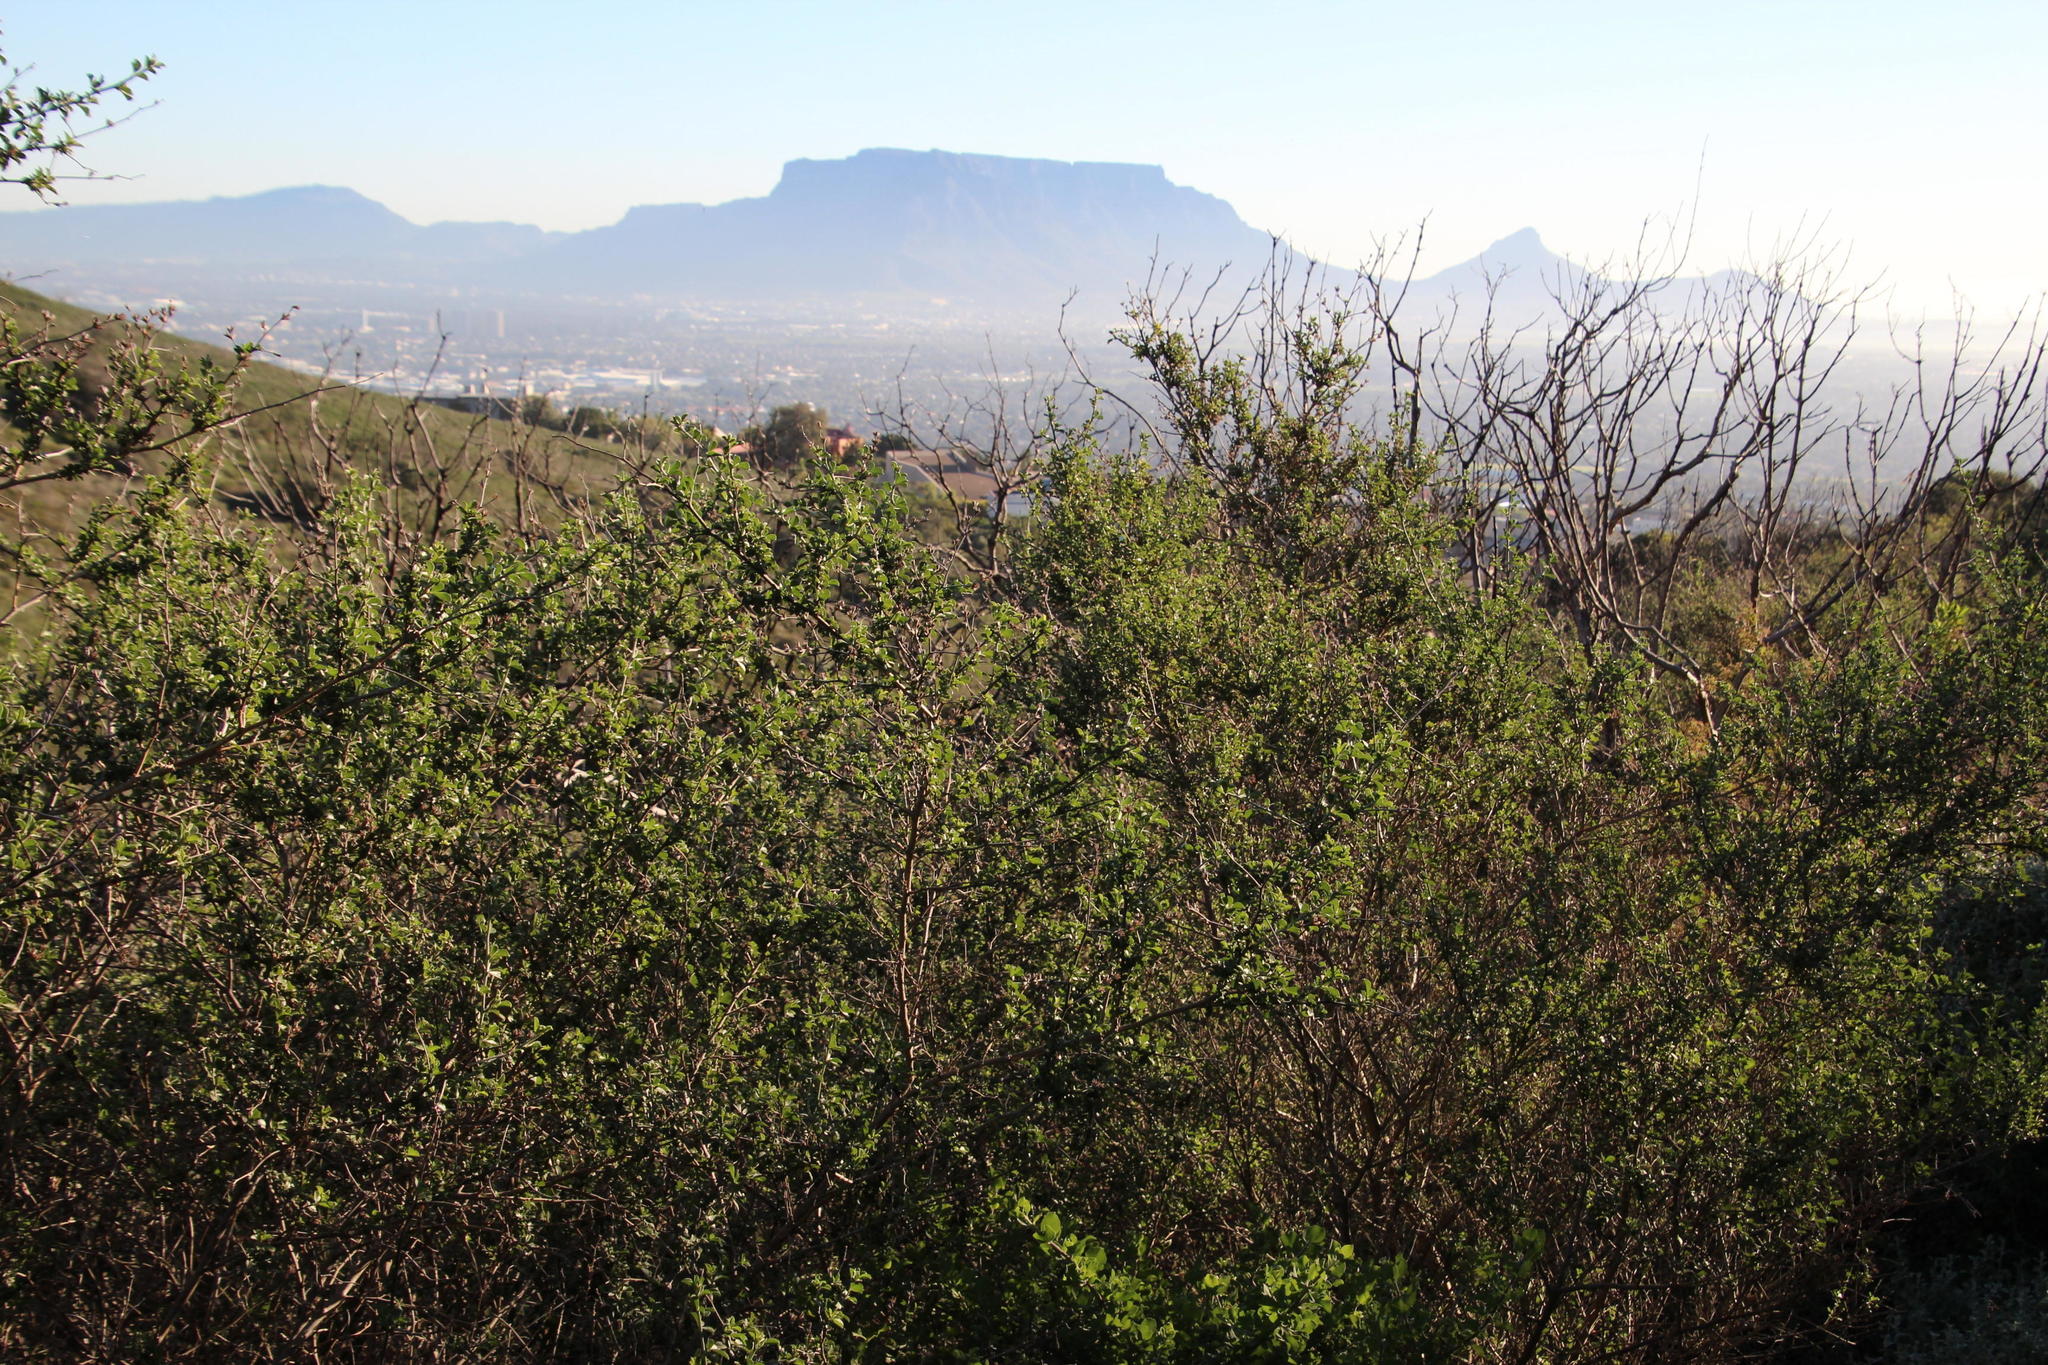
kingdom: Plantae
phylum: Tracheophyta
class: Magnoliopsida
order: Fabales
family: Fabaceae
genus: Psoralea
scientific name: Psoralea hirta
